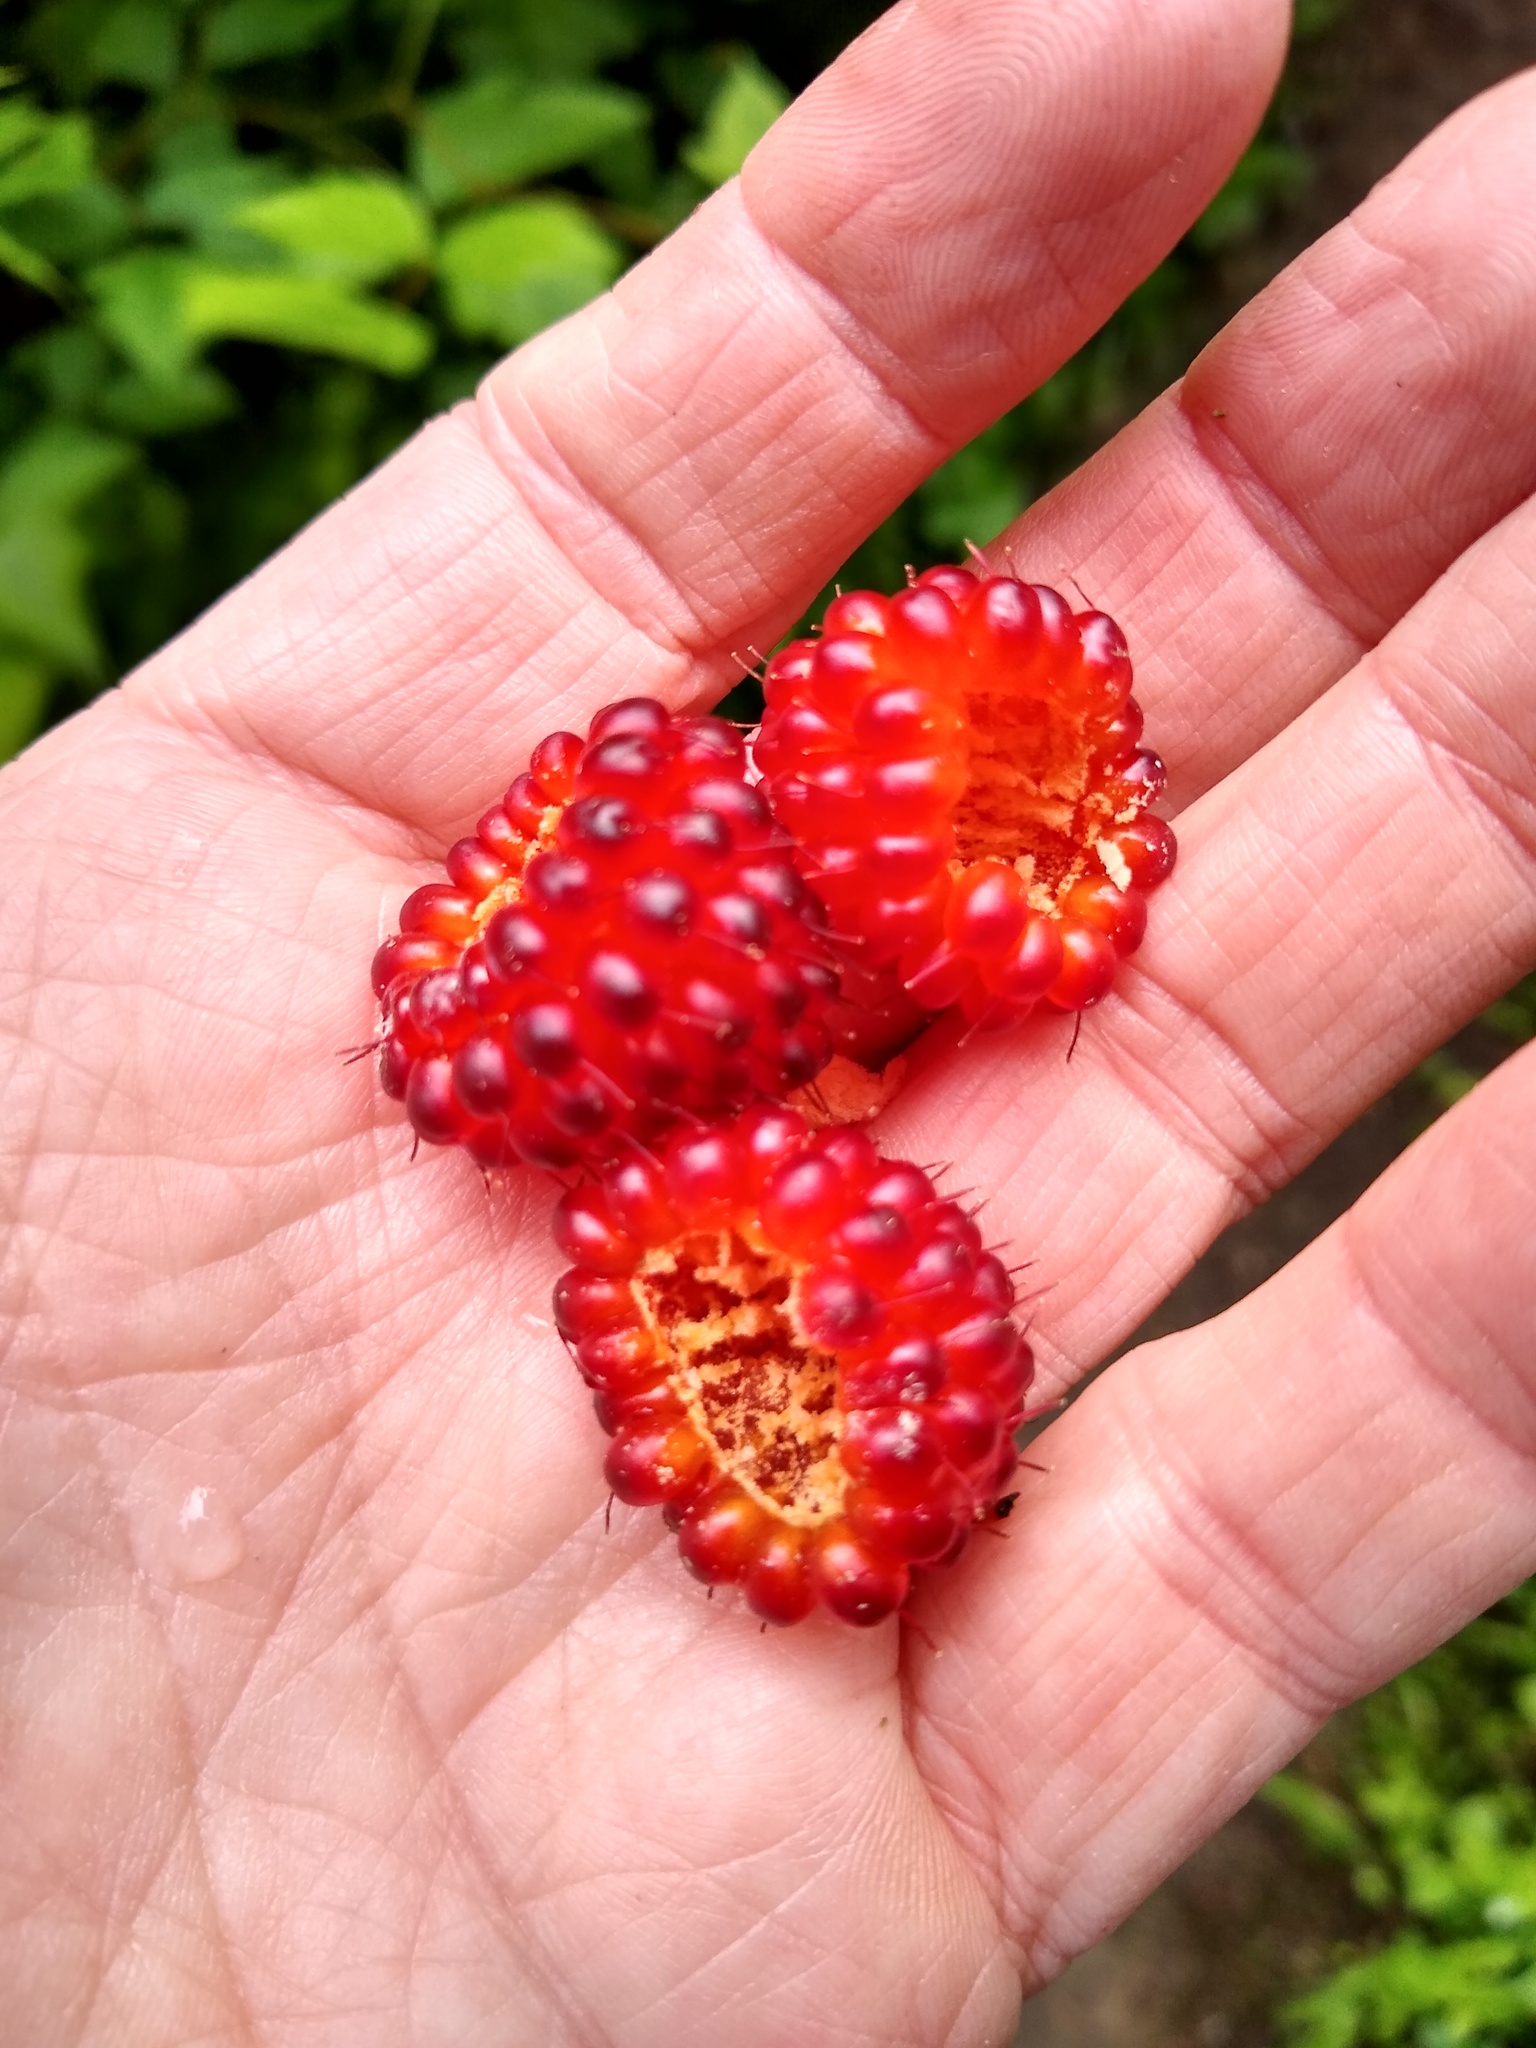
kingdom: Plantae
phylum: Tracheophyta
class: Magnoliopsida
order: Rosales
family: Rosaceae
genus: Rubus
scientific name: Rubus spectabilis
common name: Salmonberry
